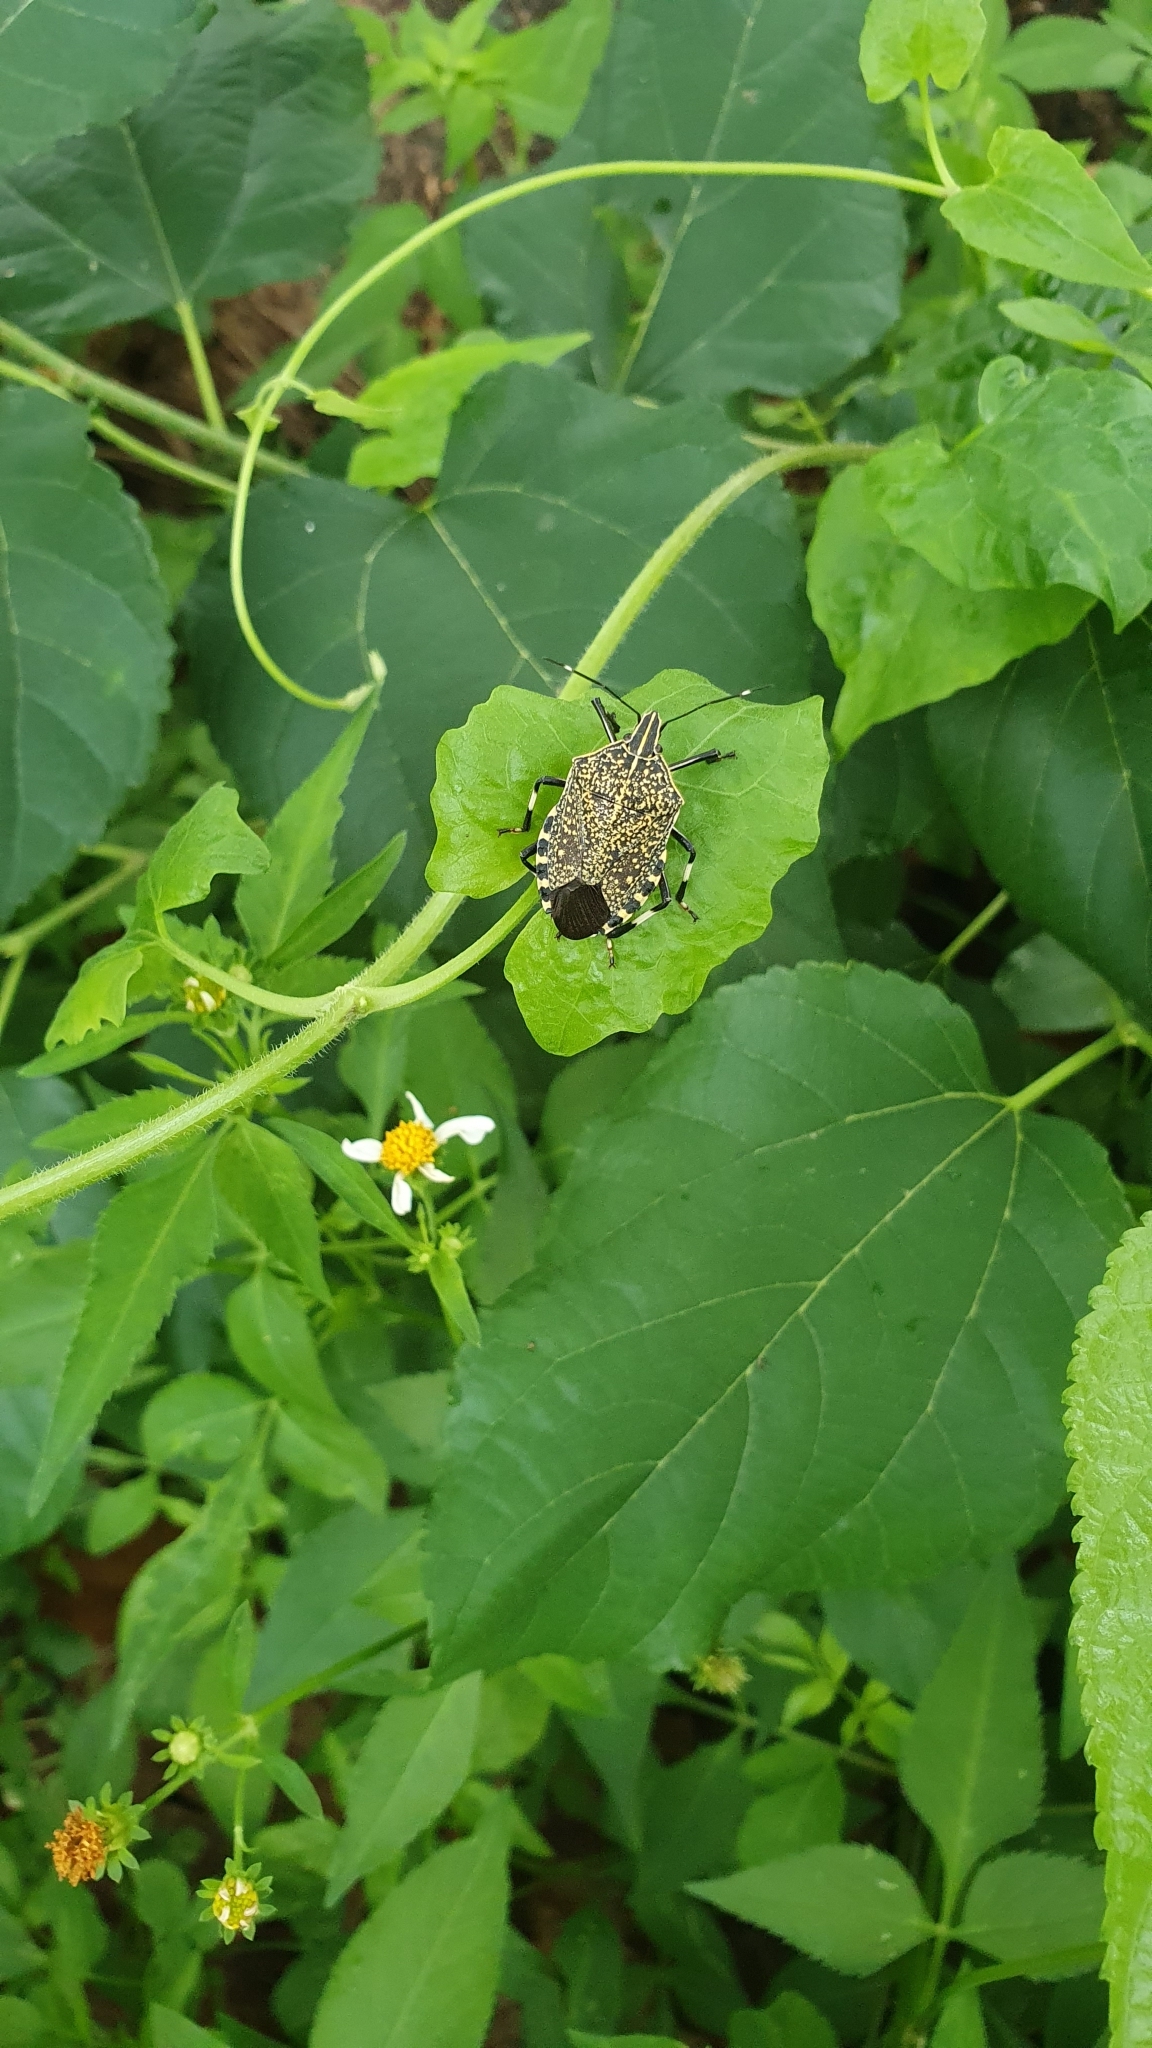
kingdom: Animalia
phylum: Arthropoda
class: Insecta
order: Hemiptera
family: Pentatomidae
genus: Erthesina
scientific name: Erthesina fullo
